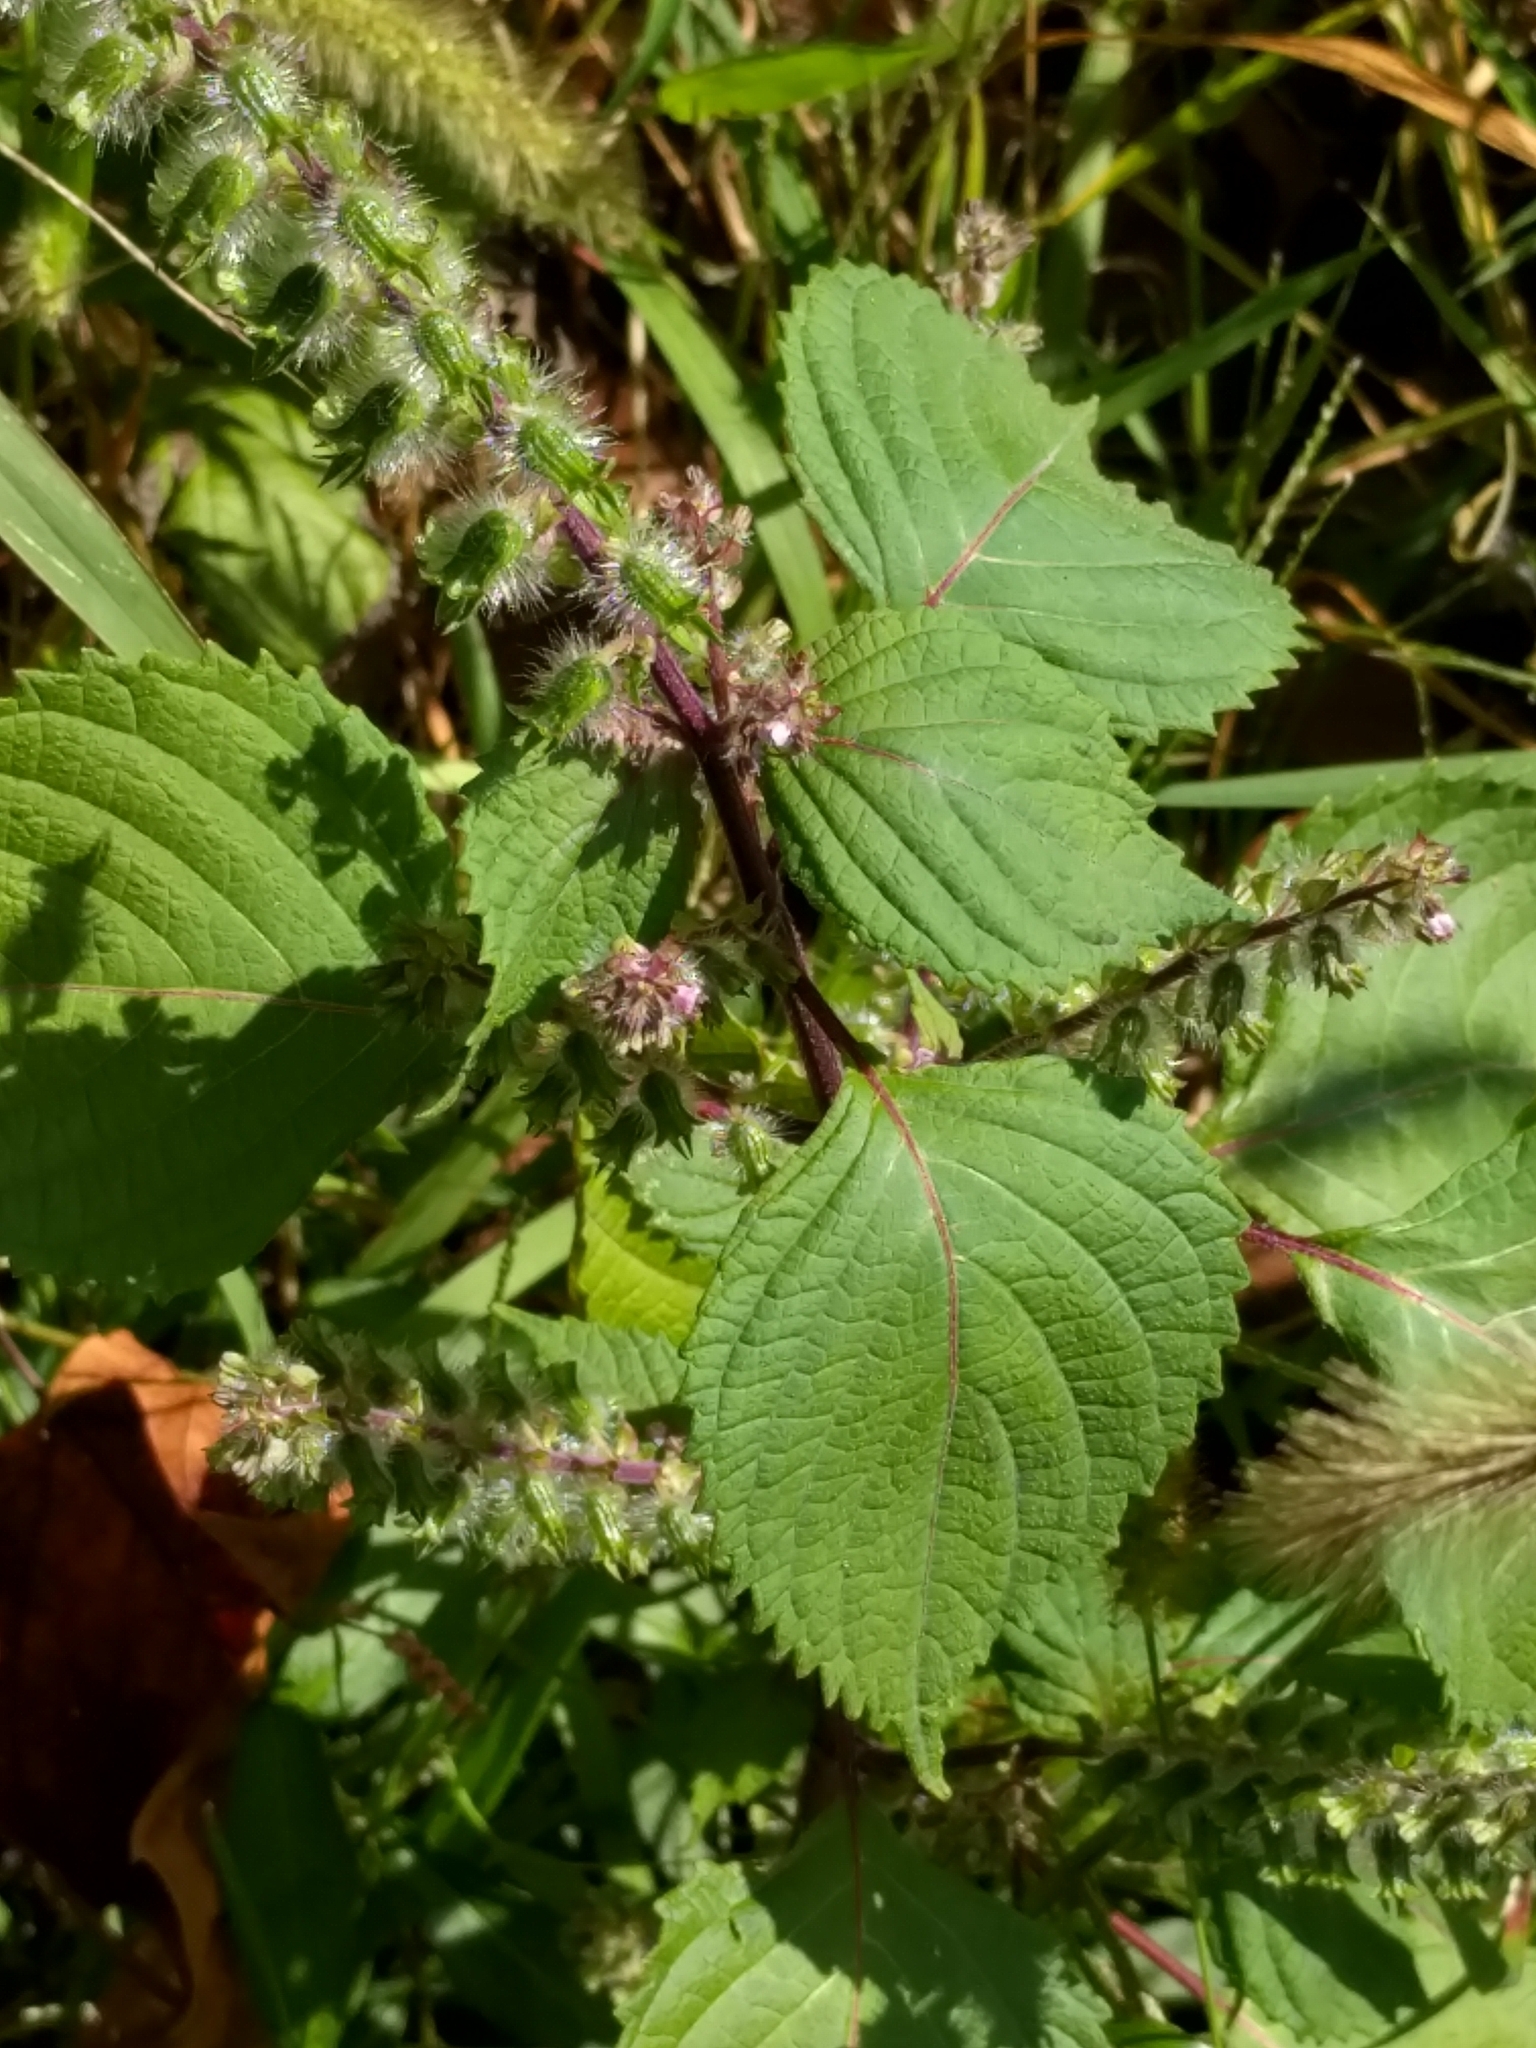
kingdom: Plantae
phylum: Tracheophyta
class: Magnoliopsida
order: Lamiales
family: Lamiaceae
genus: Perilla
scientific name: Perilla frutescens
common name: Perilla
